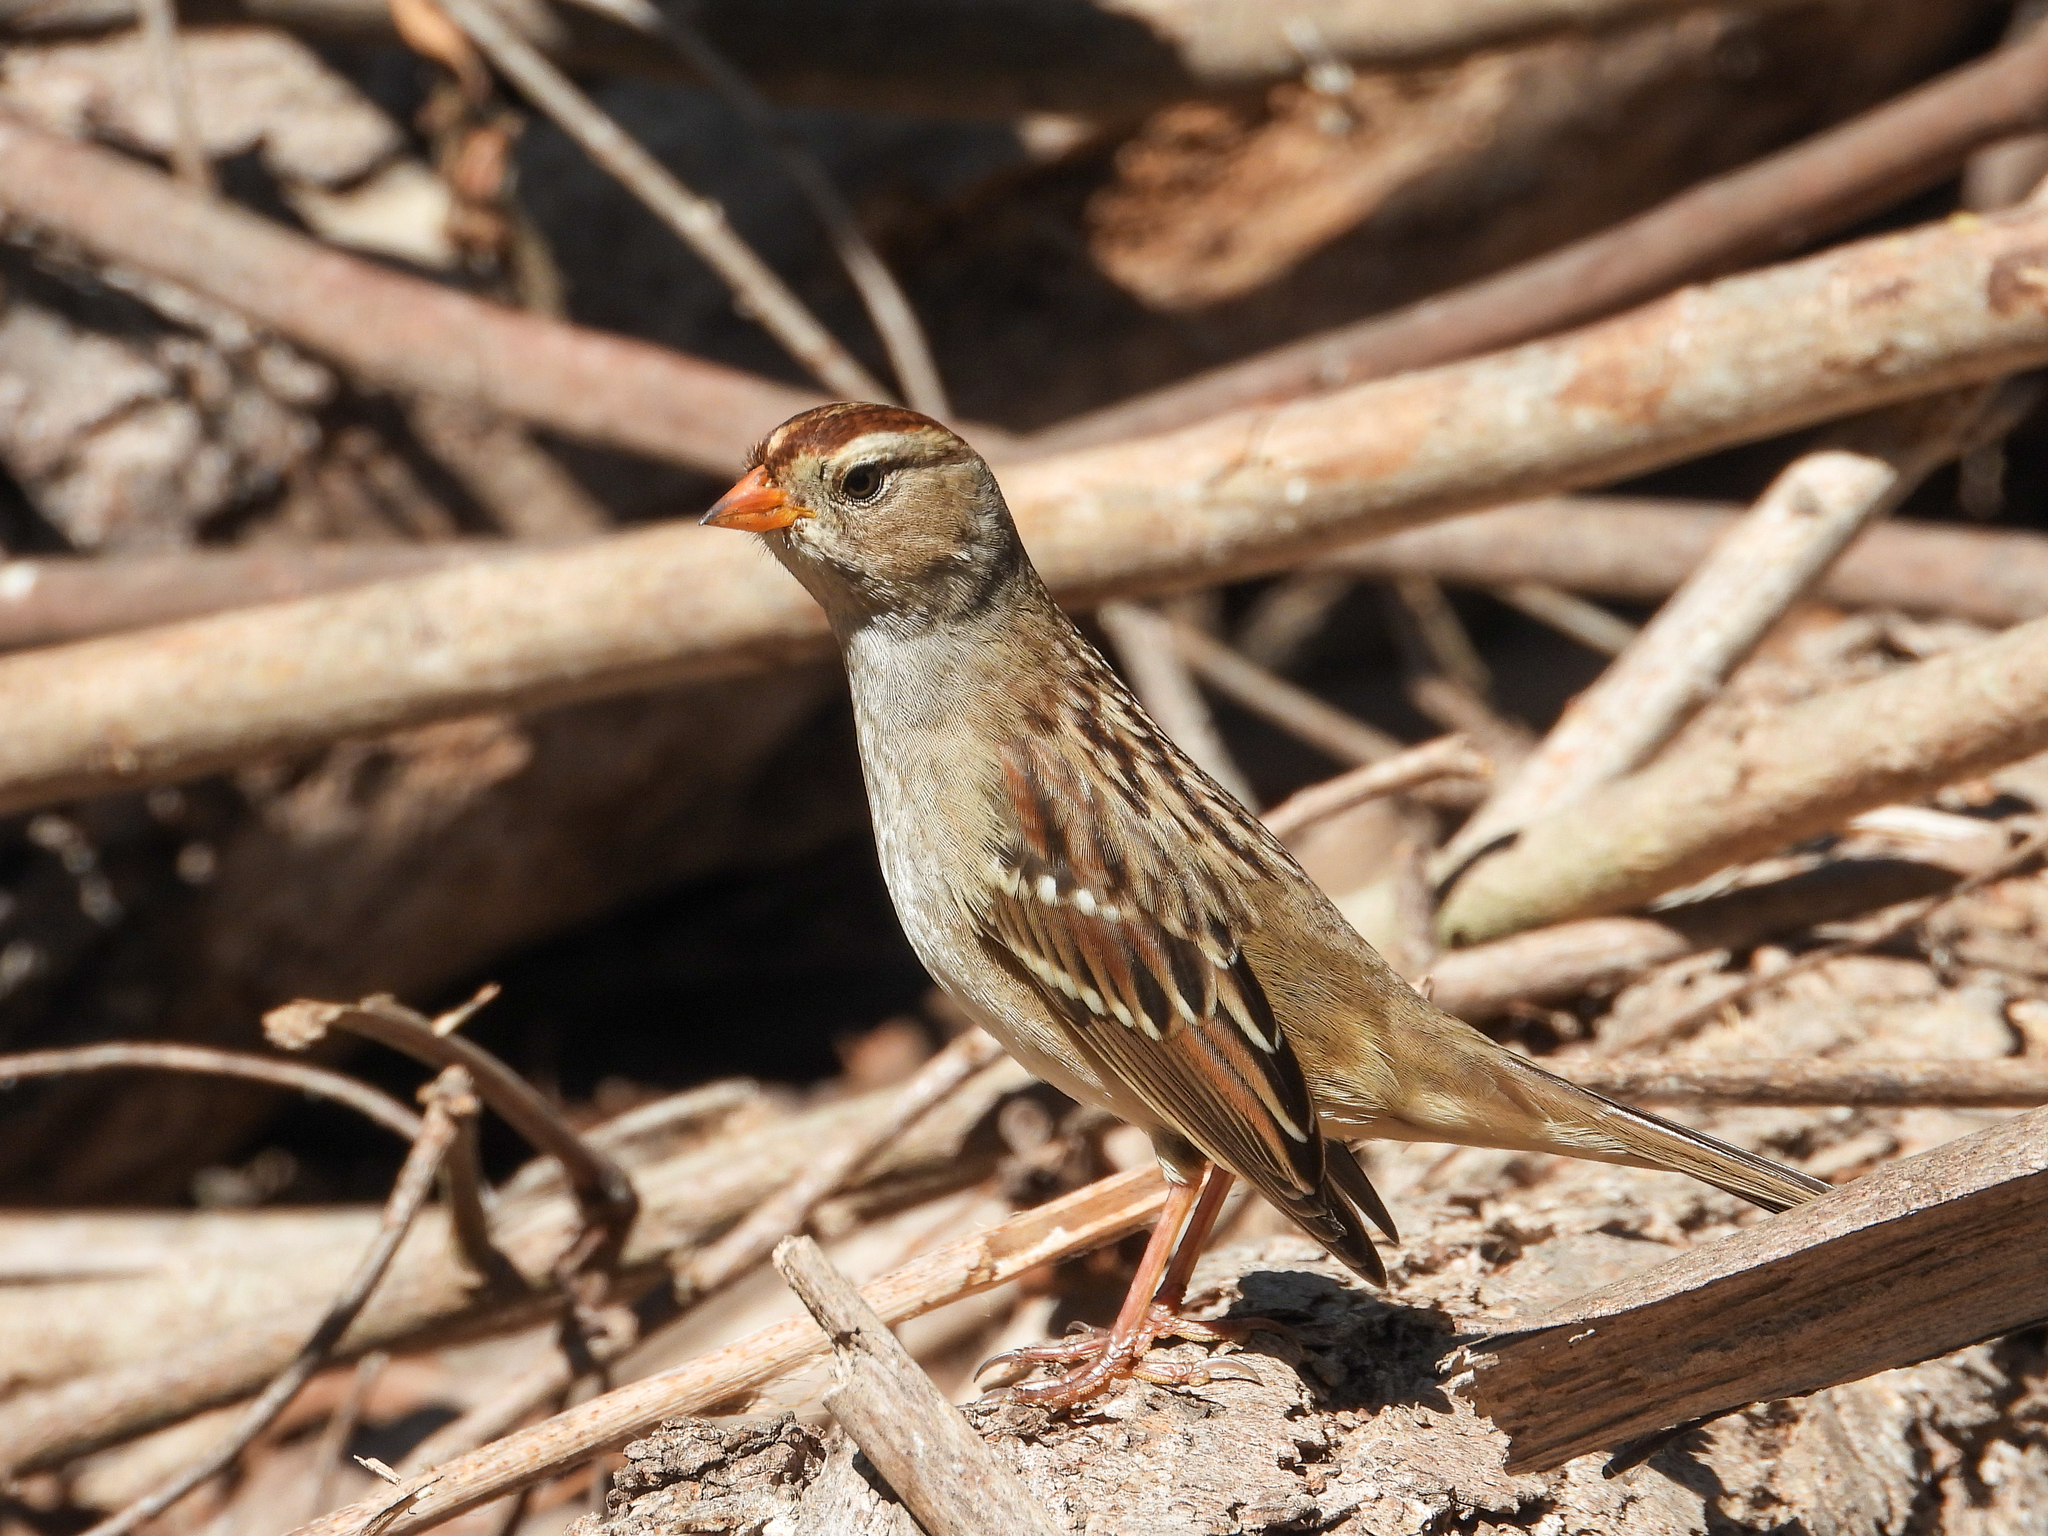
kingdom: Animalia
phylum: Chordata
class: Aves
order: Passeriformes
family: Passerellidae
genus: Zonotrichia
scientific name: Zonotrichia leucophrys
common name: White-crowned sparrow
